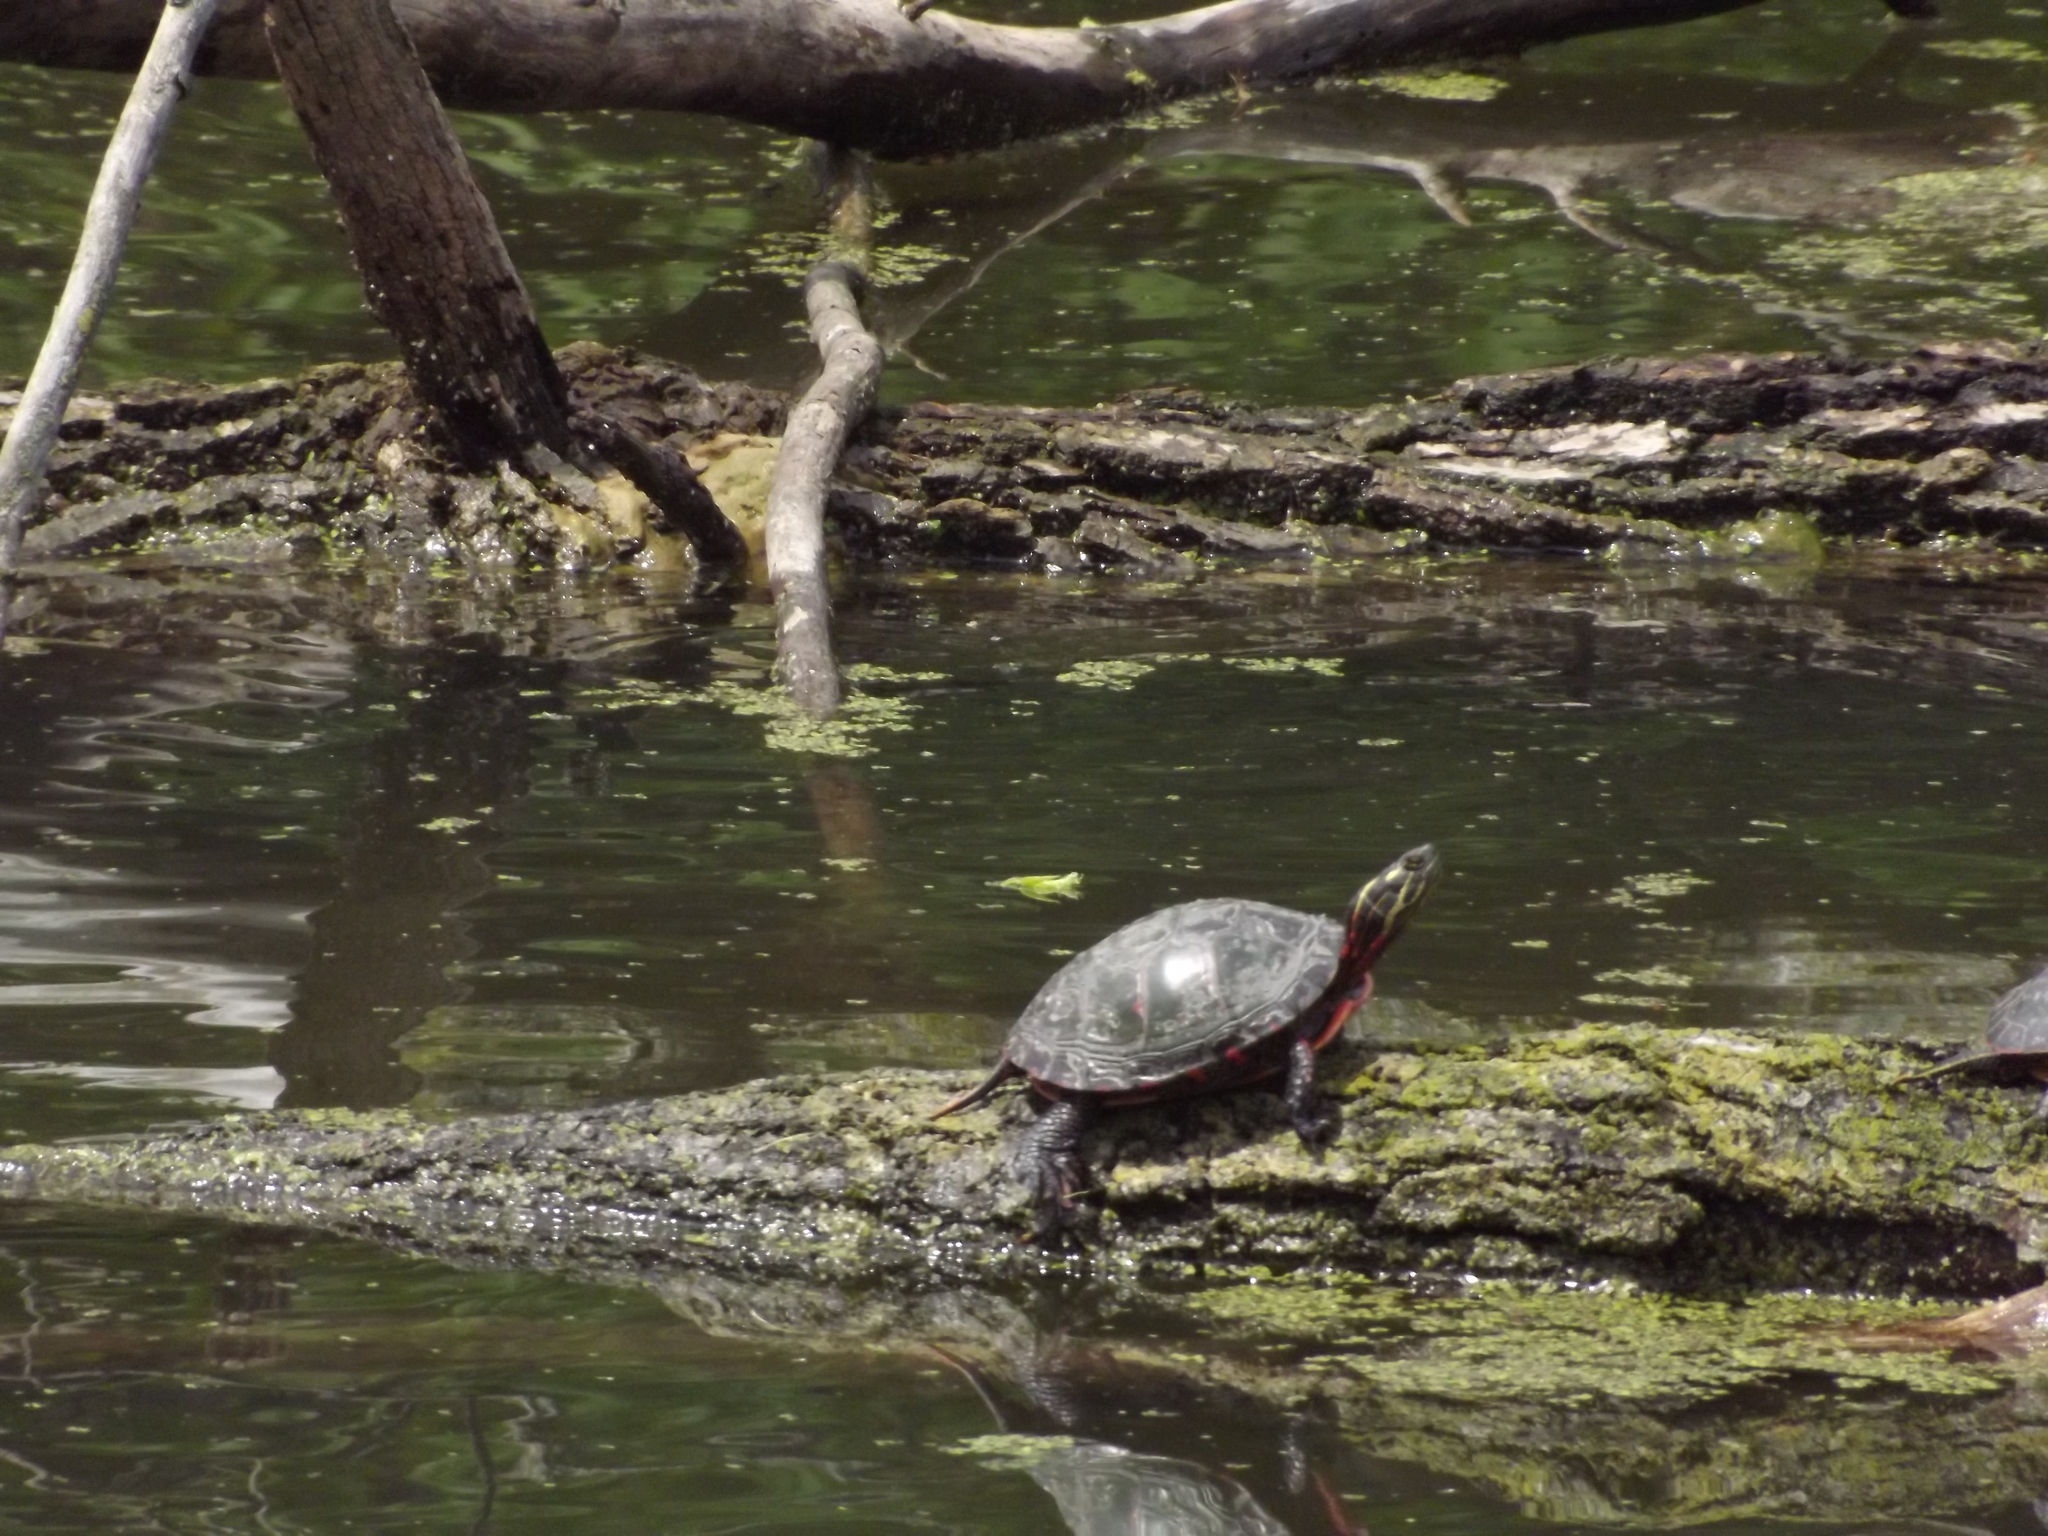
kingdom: Animalia
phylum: Chordata
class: Testudines
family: Emydidae
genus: Chrysemys
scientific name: Chrysemys picta
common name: Painted turtle
